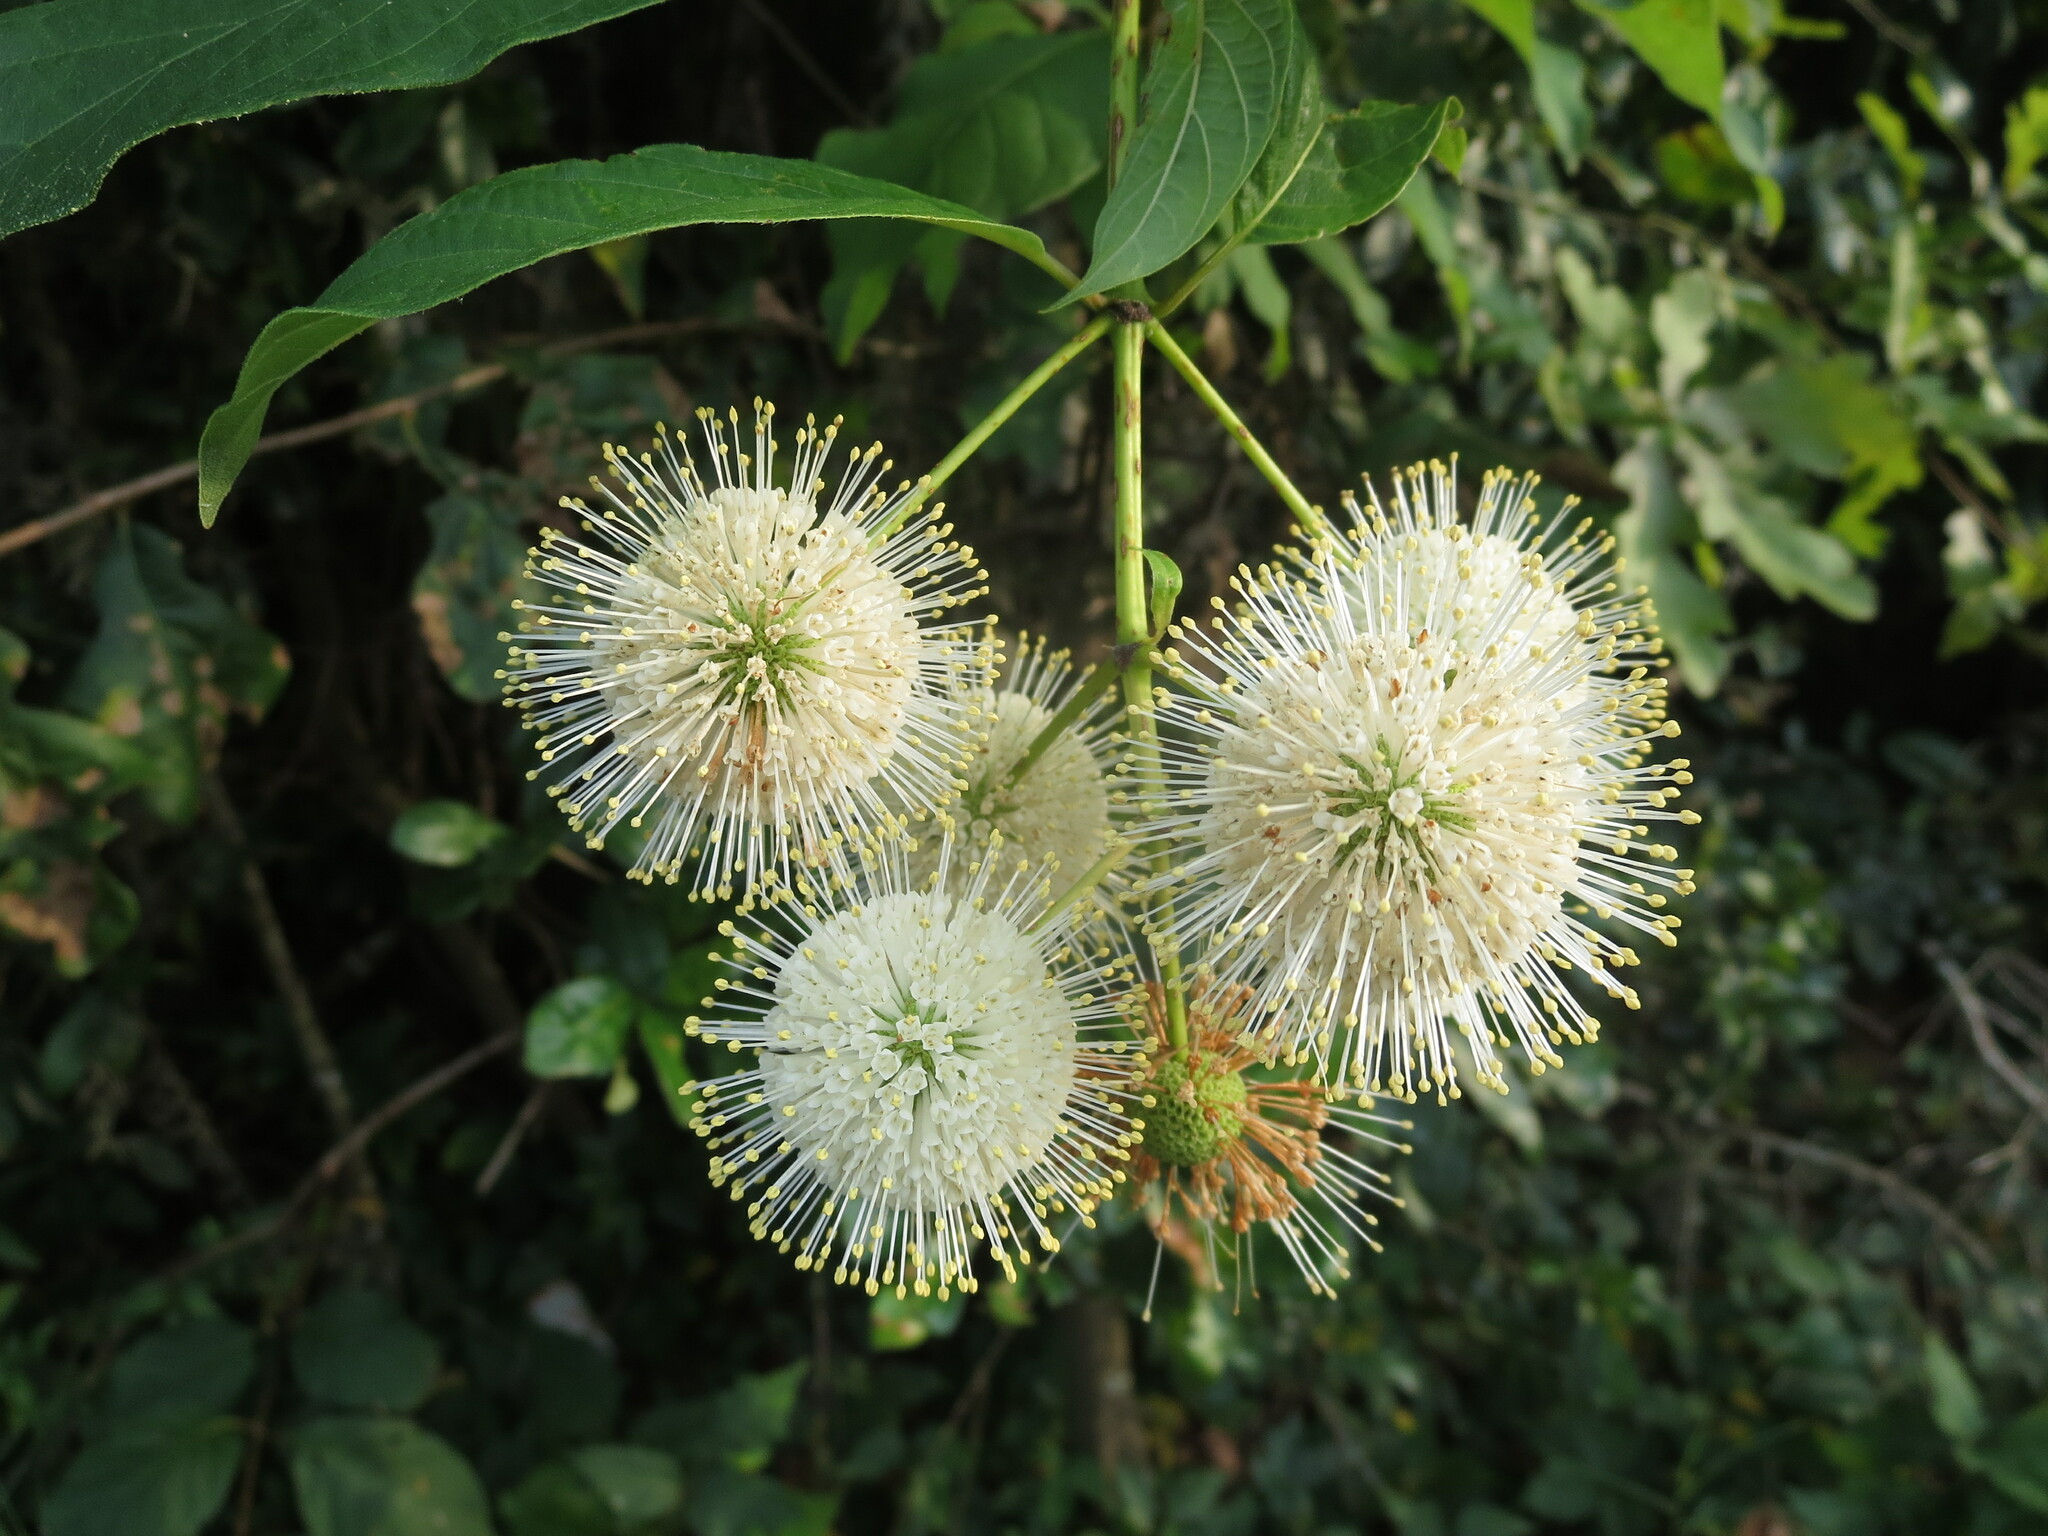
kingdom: Plantae
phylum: Tracheophyta
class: Magnoliopsida
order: Gentianales
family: Rubiaceae
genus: Cephalanthus
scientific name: Cephalanthus occidentalis
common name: Button-willow
